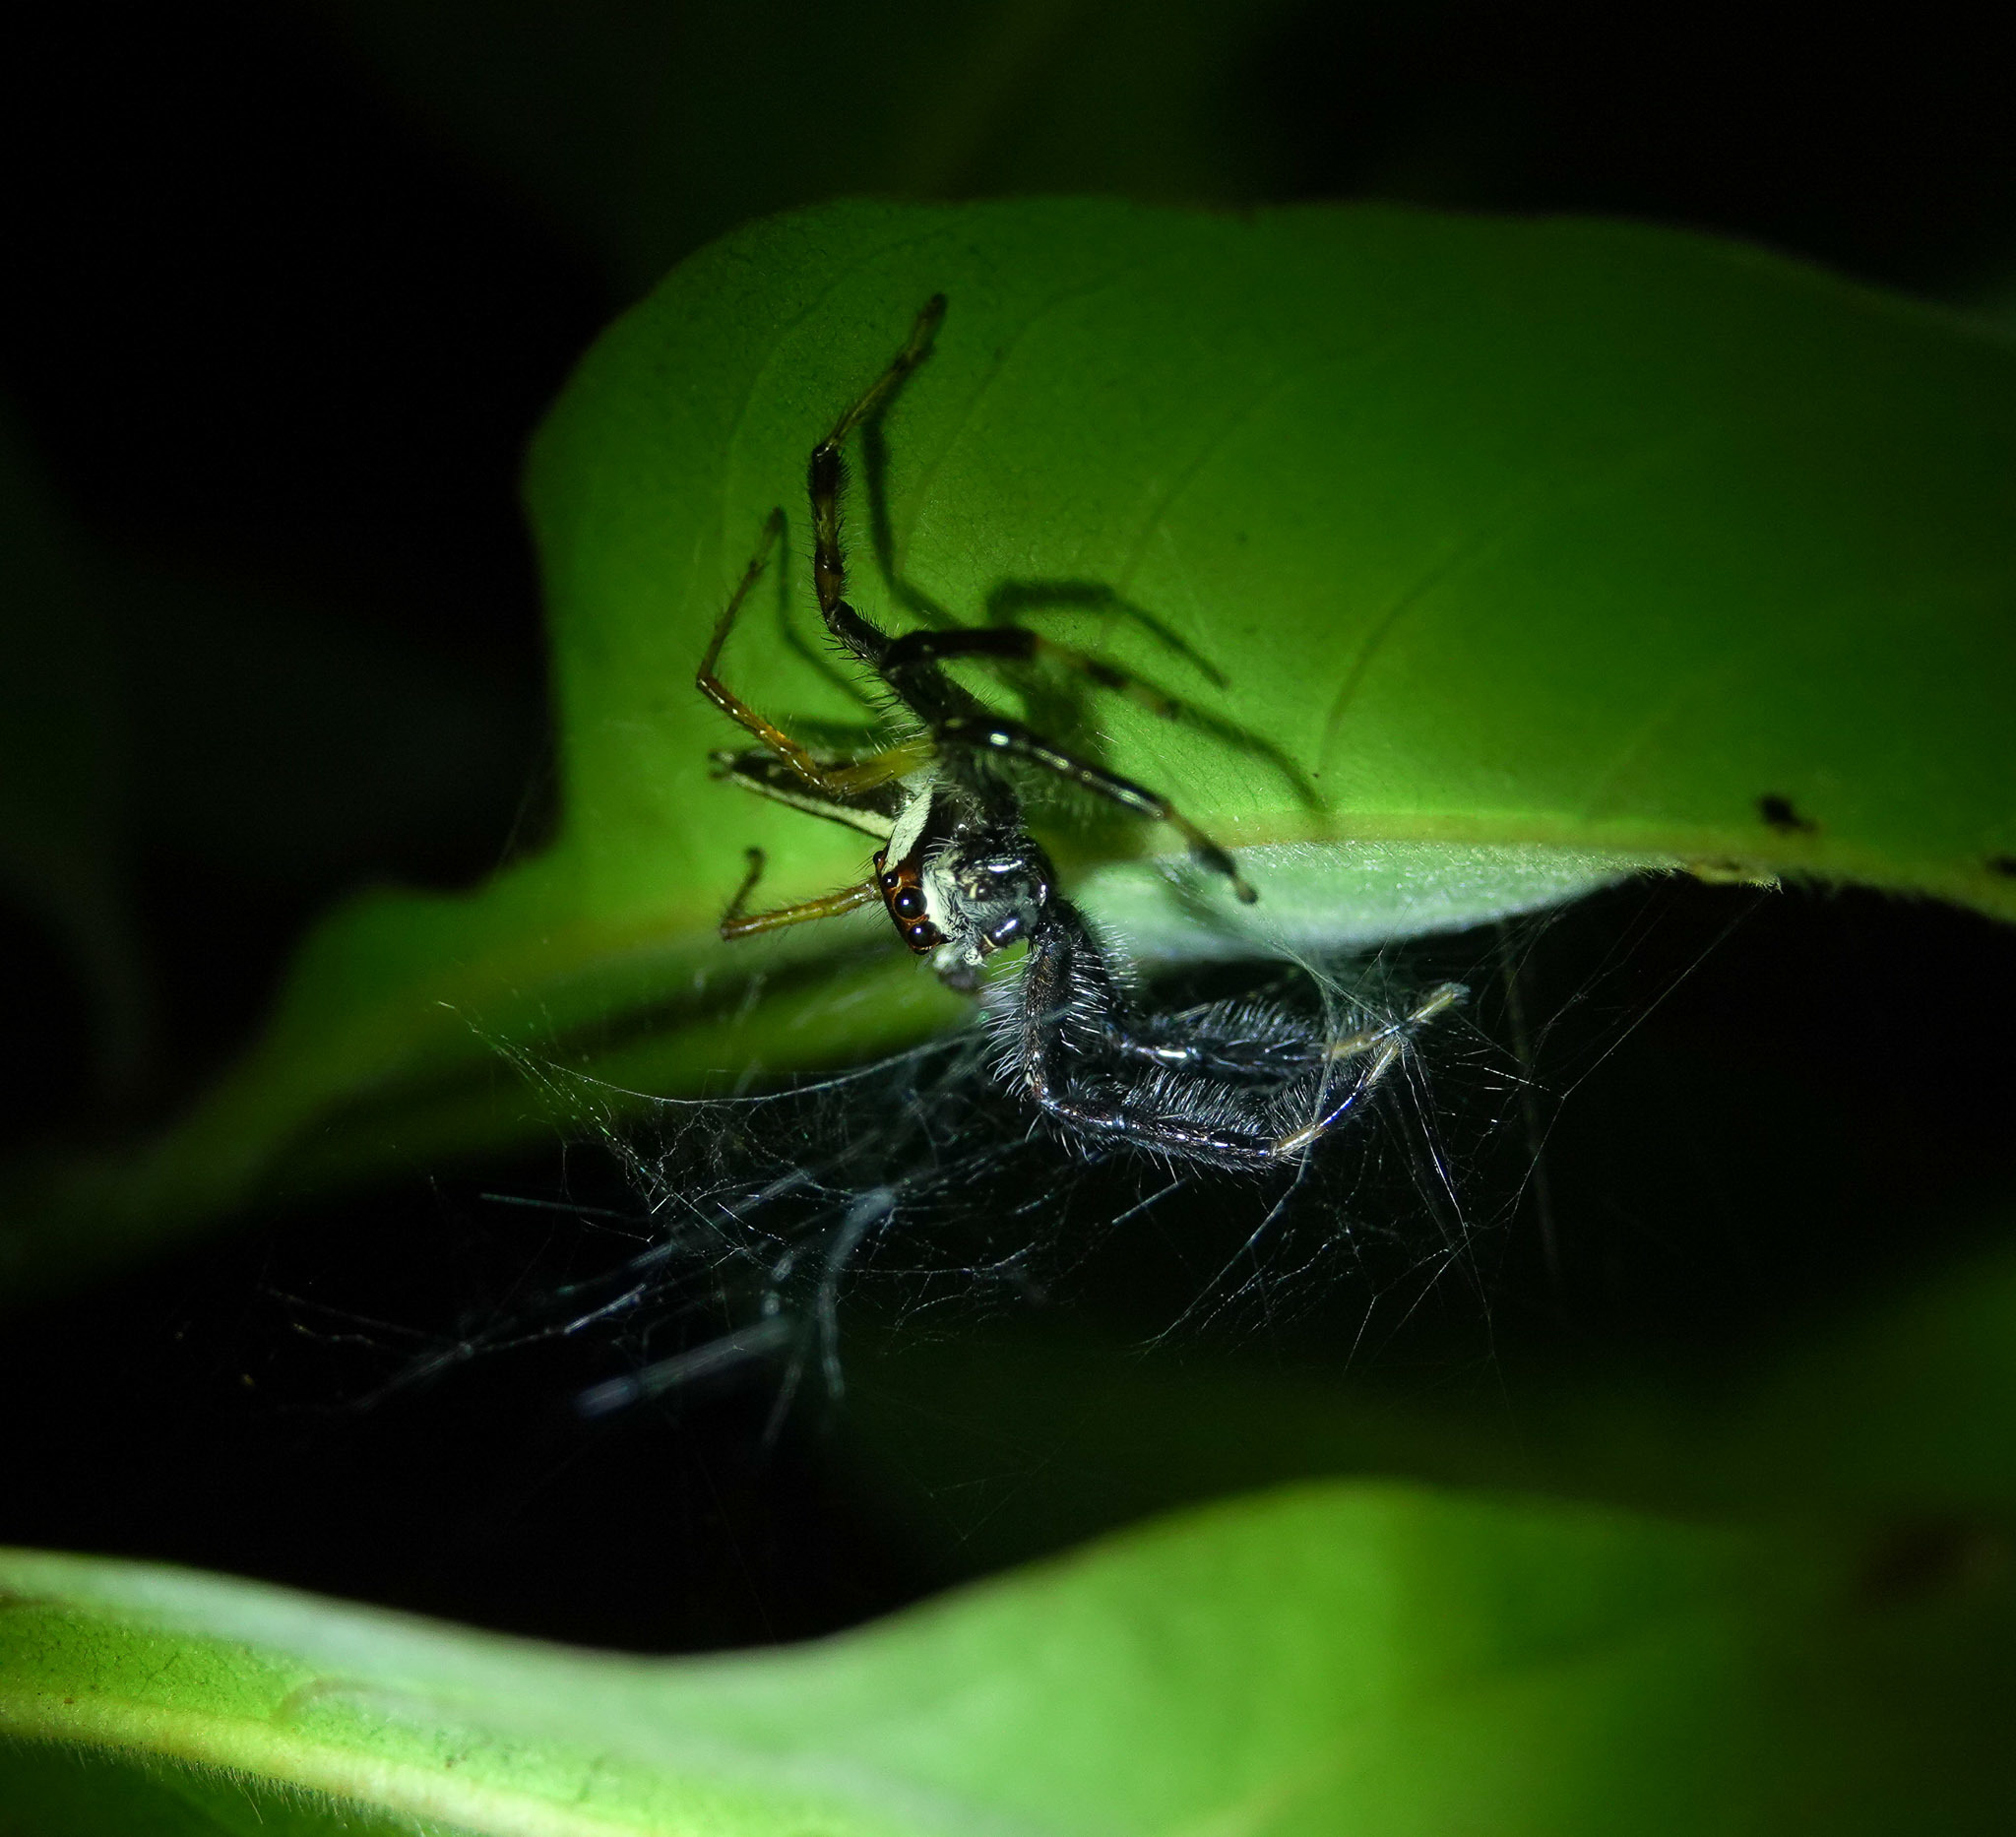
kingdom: Animalia
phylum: Arthropoda
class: Arachnida
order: Araneae
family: Salticidae
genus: Telamonia
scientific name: Telamonia dimidiata
